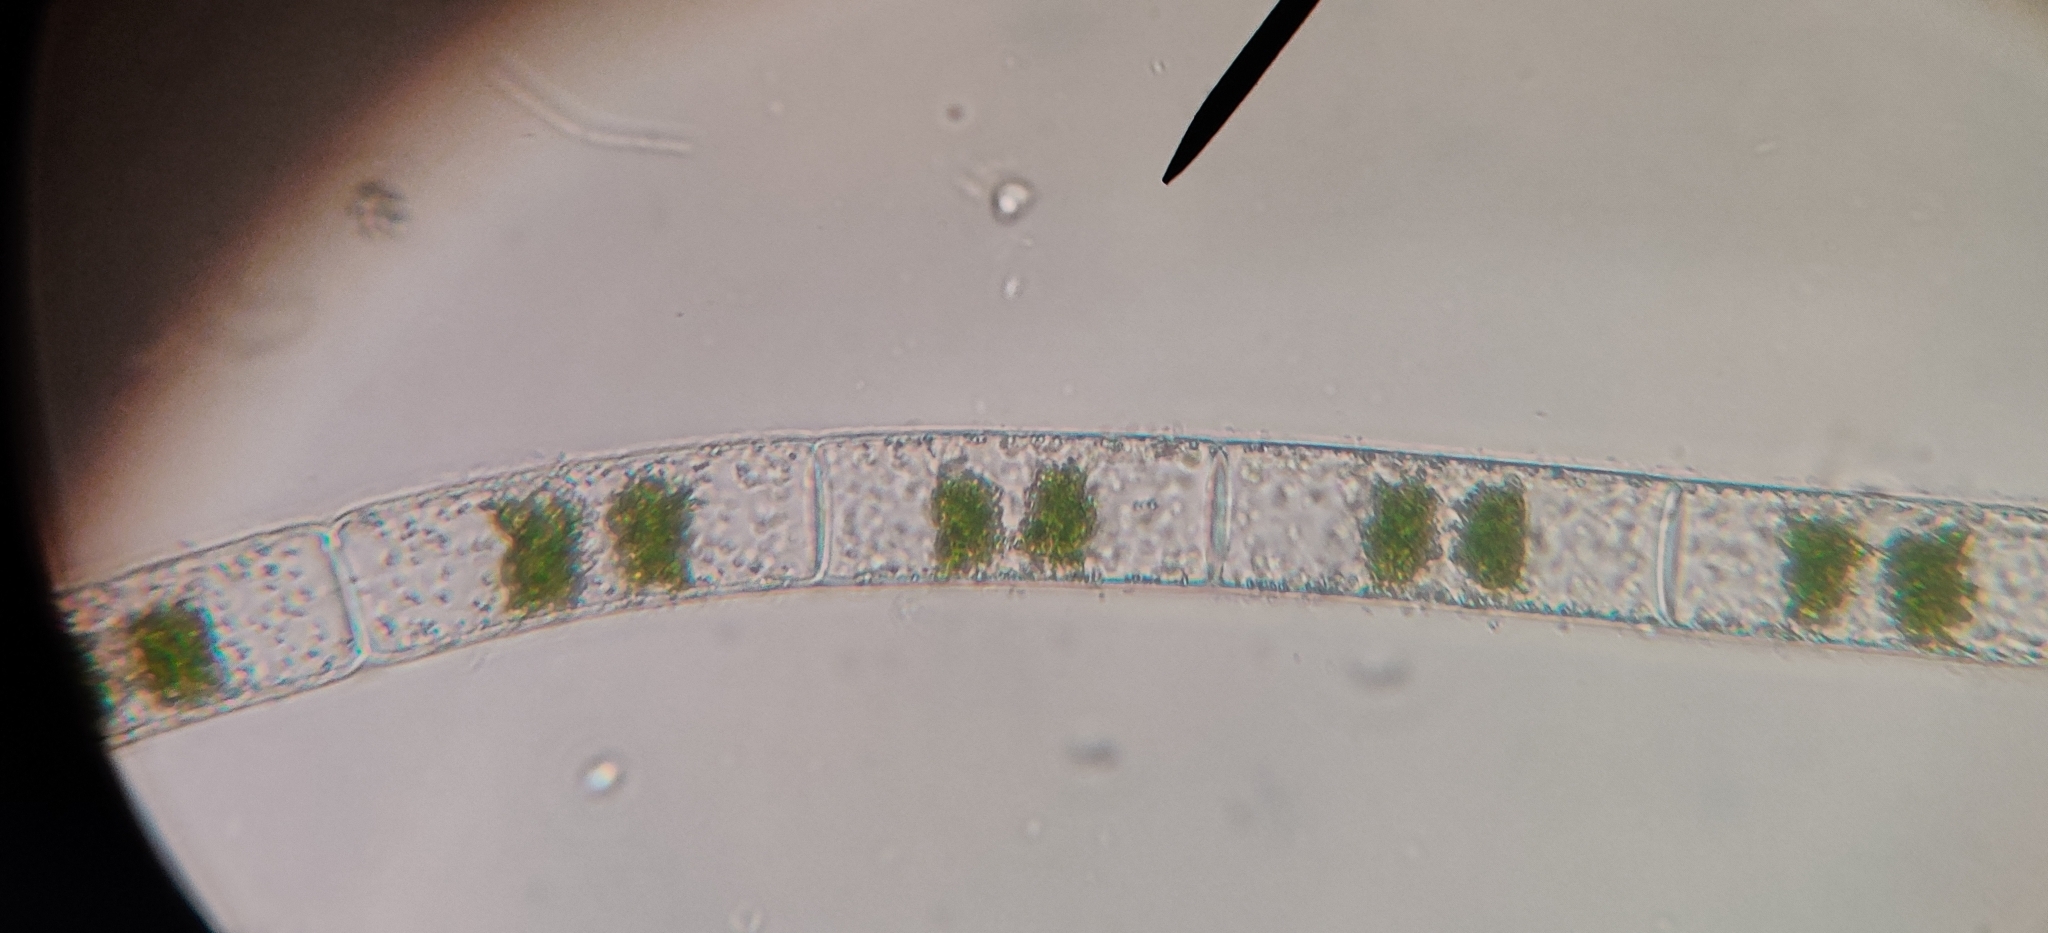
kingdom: Plantae
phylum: Charophyta
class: Zygnematophyceae
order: Zygnematales
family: Zygnemataceae
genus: Zygnema
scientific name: Zygnema
